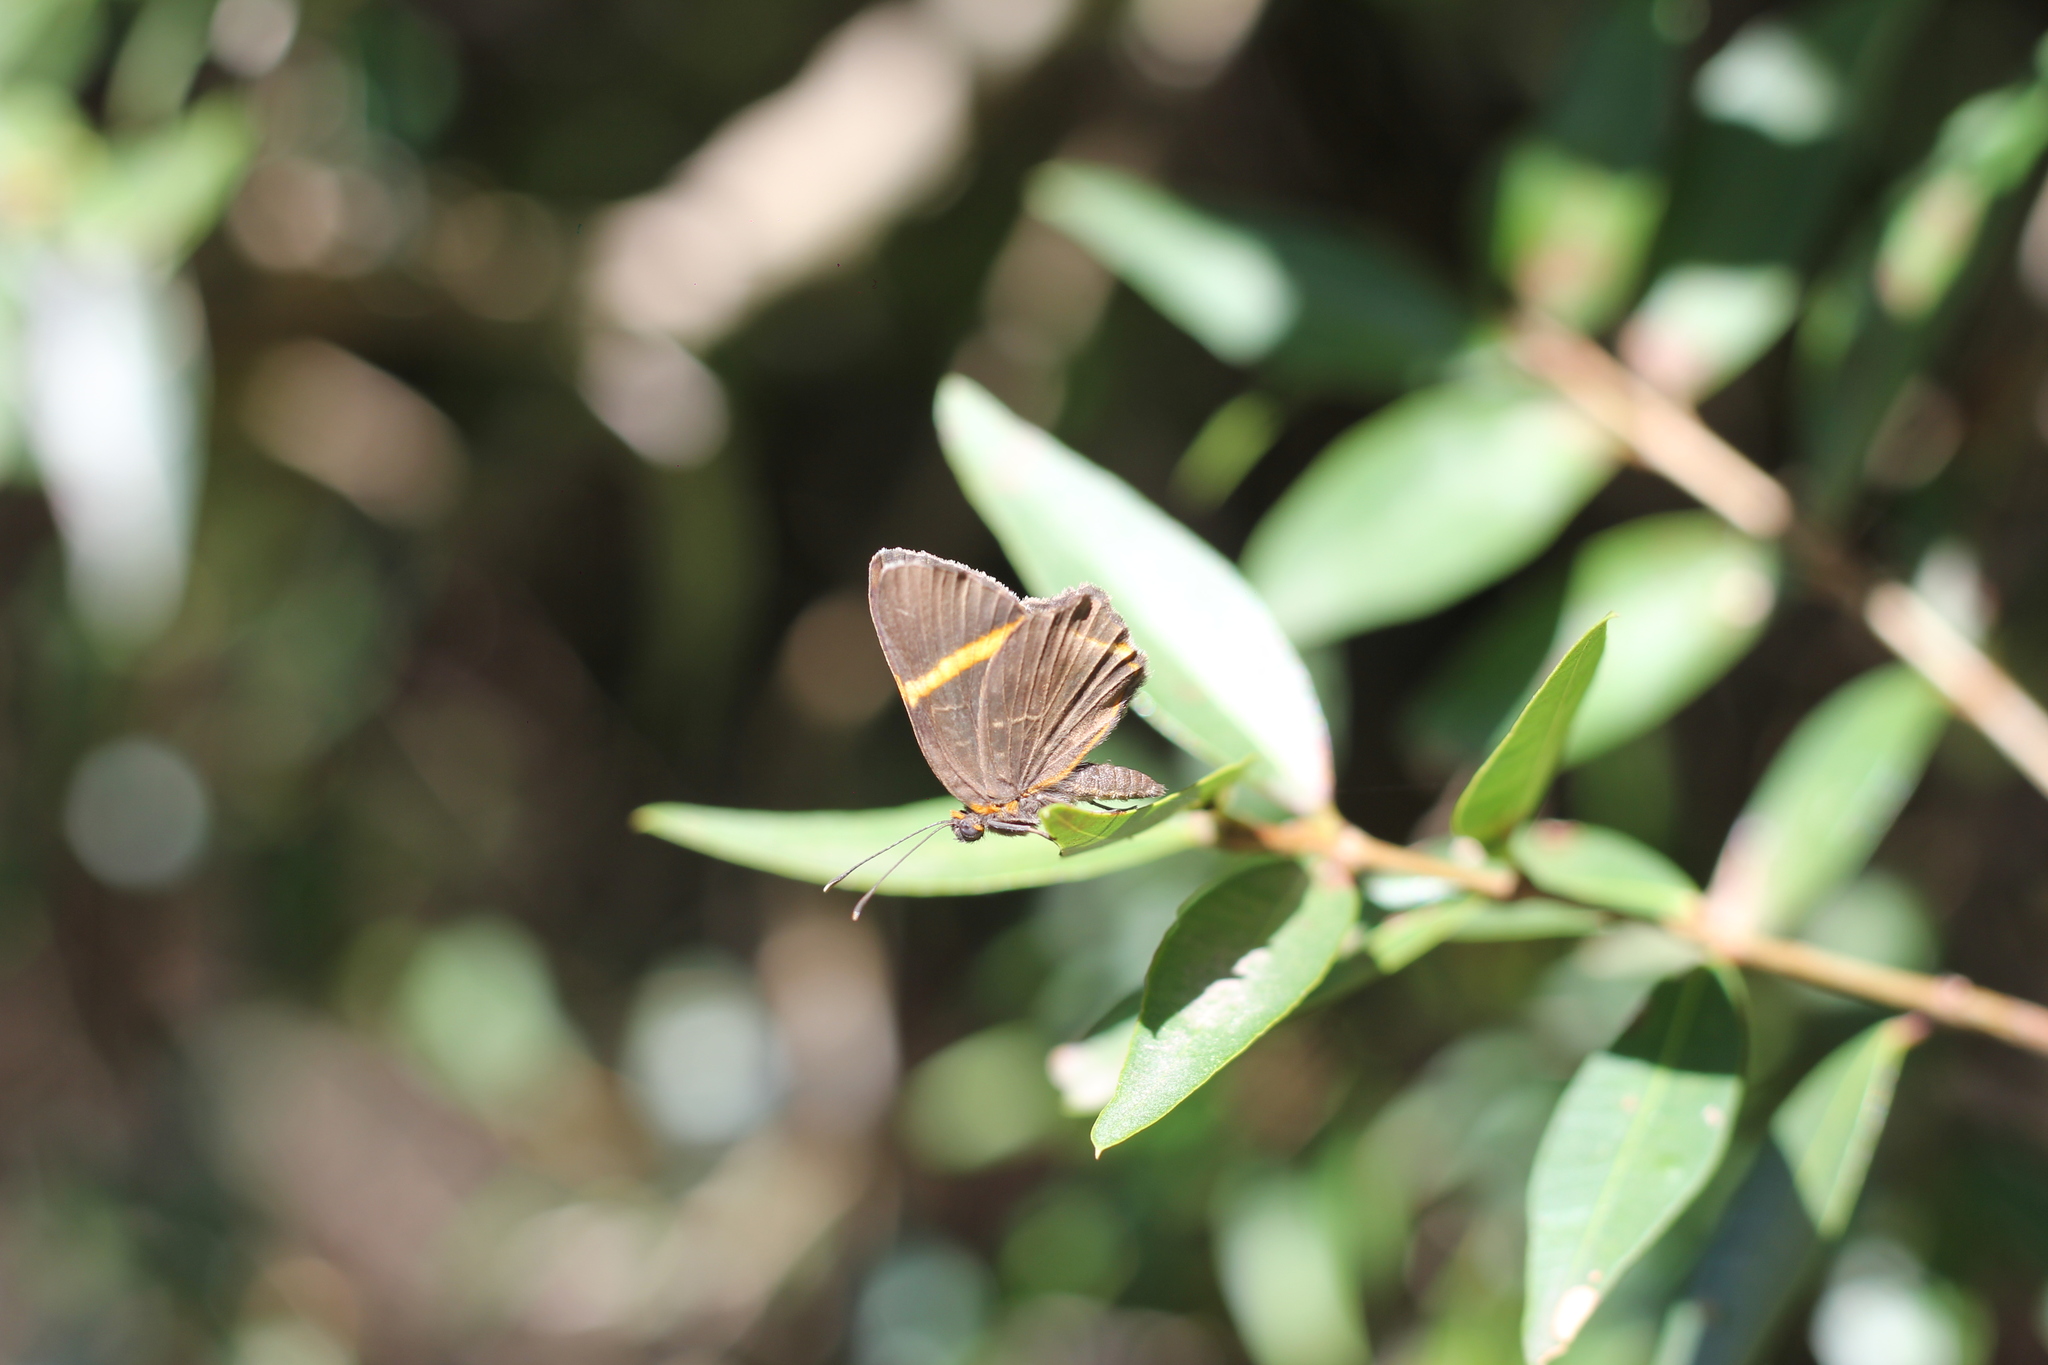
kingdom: Animalia
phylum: Arthropoda
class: Insecta
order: Lepidoptera
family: Riodinidae
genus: Riodina
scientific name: Riodina lysippoides
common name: Little dancer metalmark
